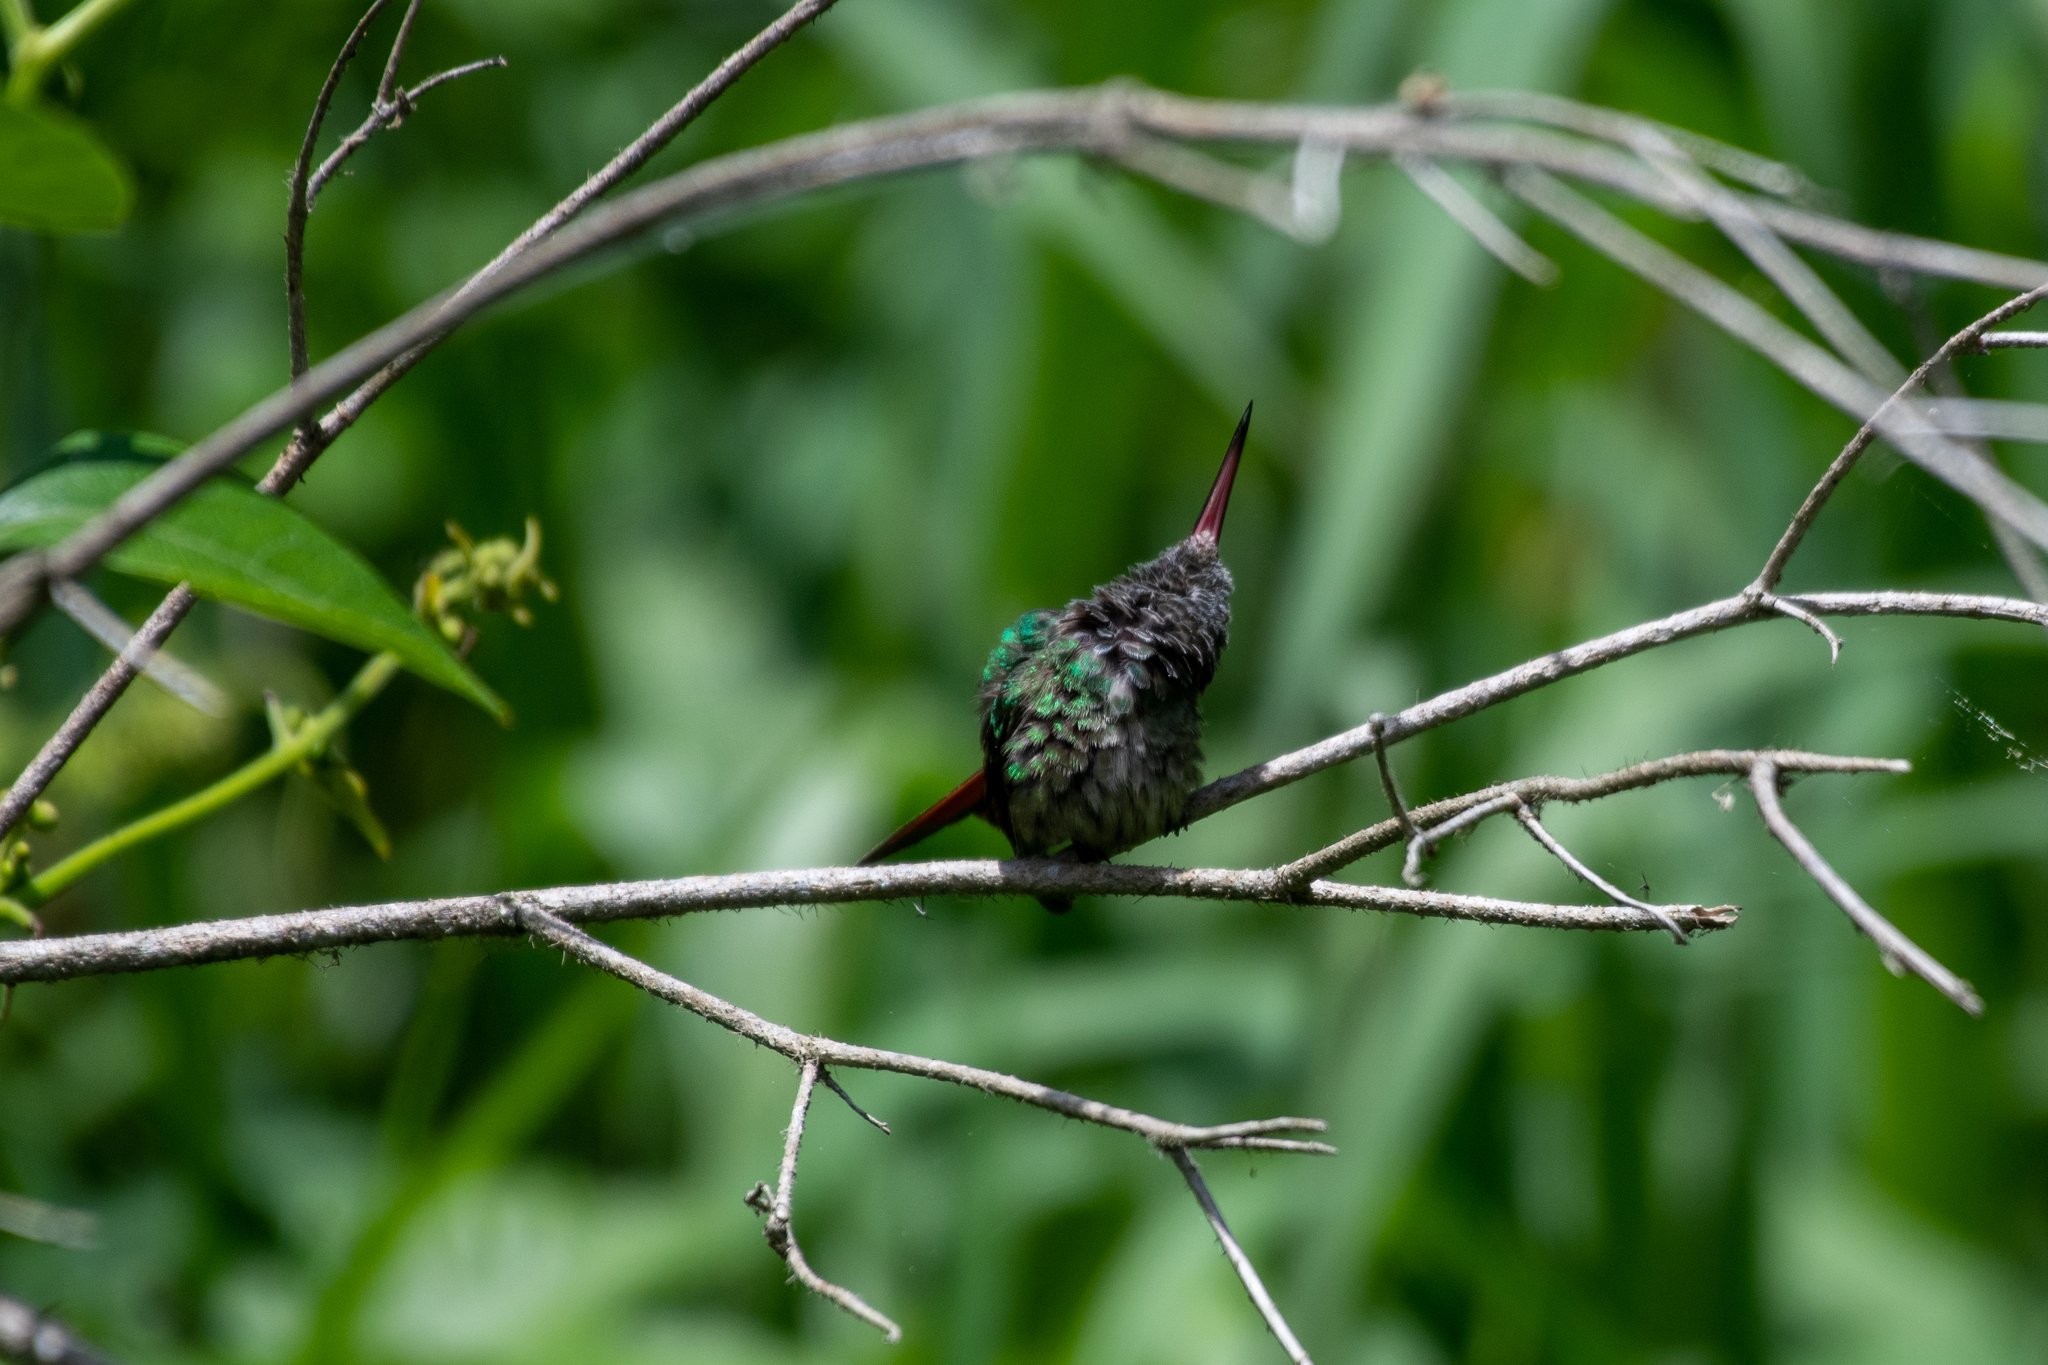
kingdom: Animalia
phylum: Chordata
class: Aves
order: Apodiformes
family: Trochilidae
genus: Amazilia
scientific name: Amazilia tzacatl
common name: Rufous-tailed hummingbird
